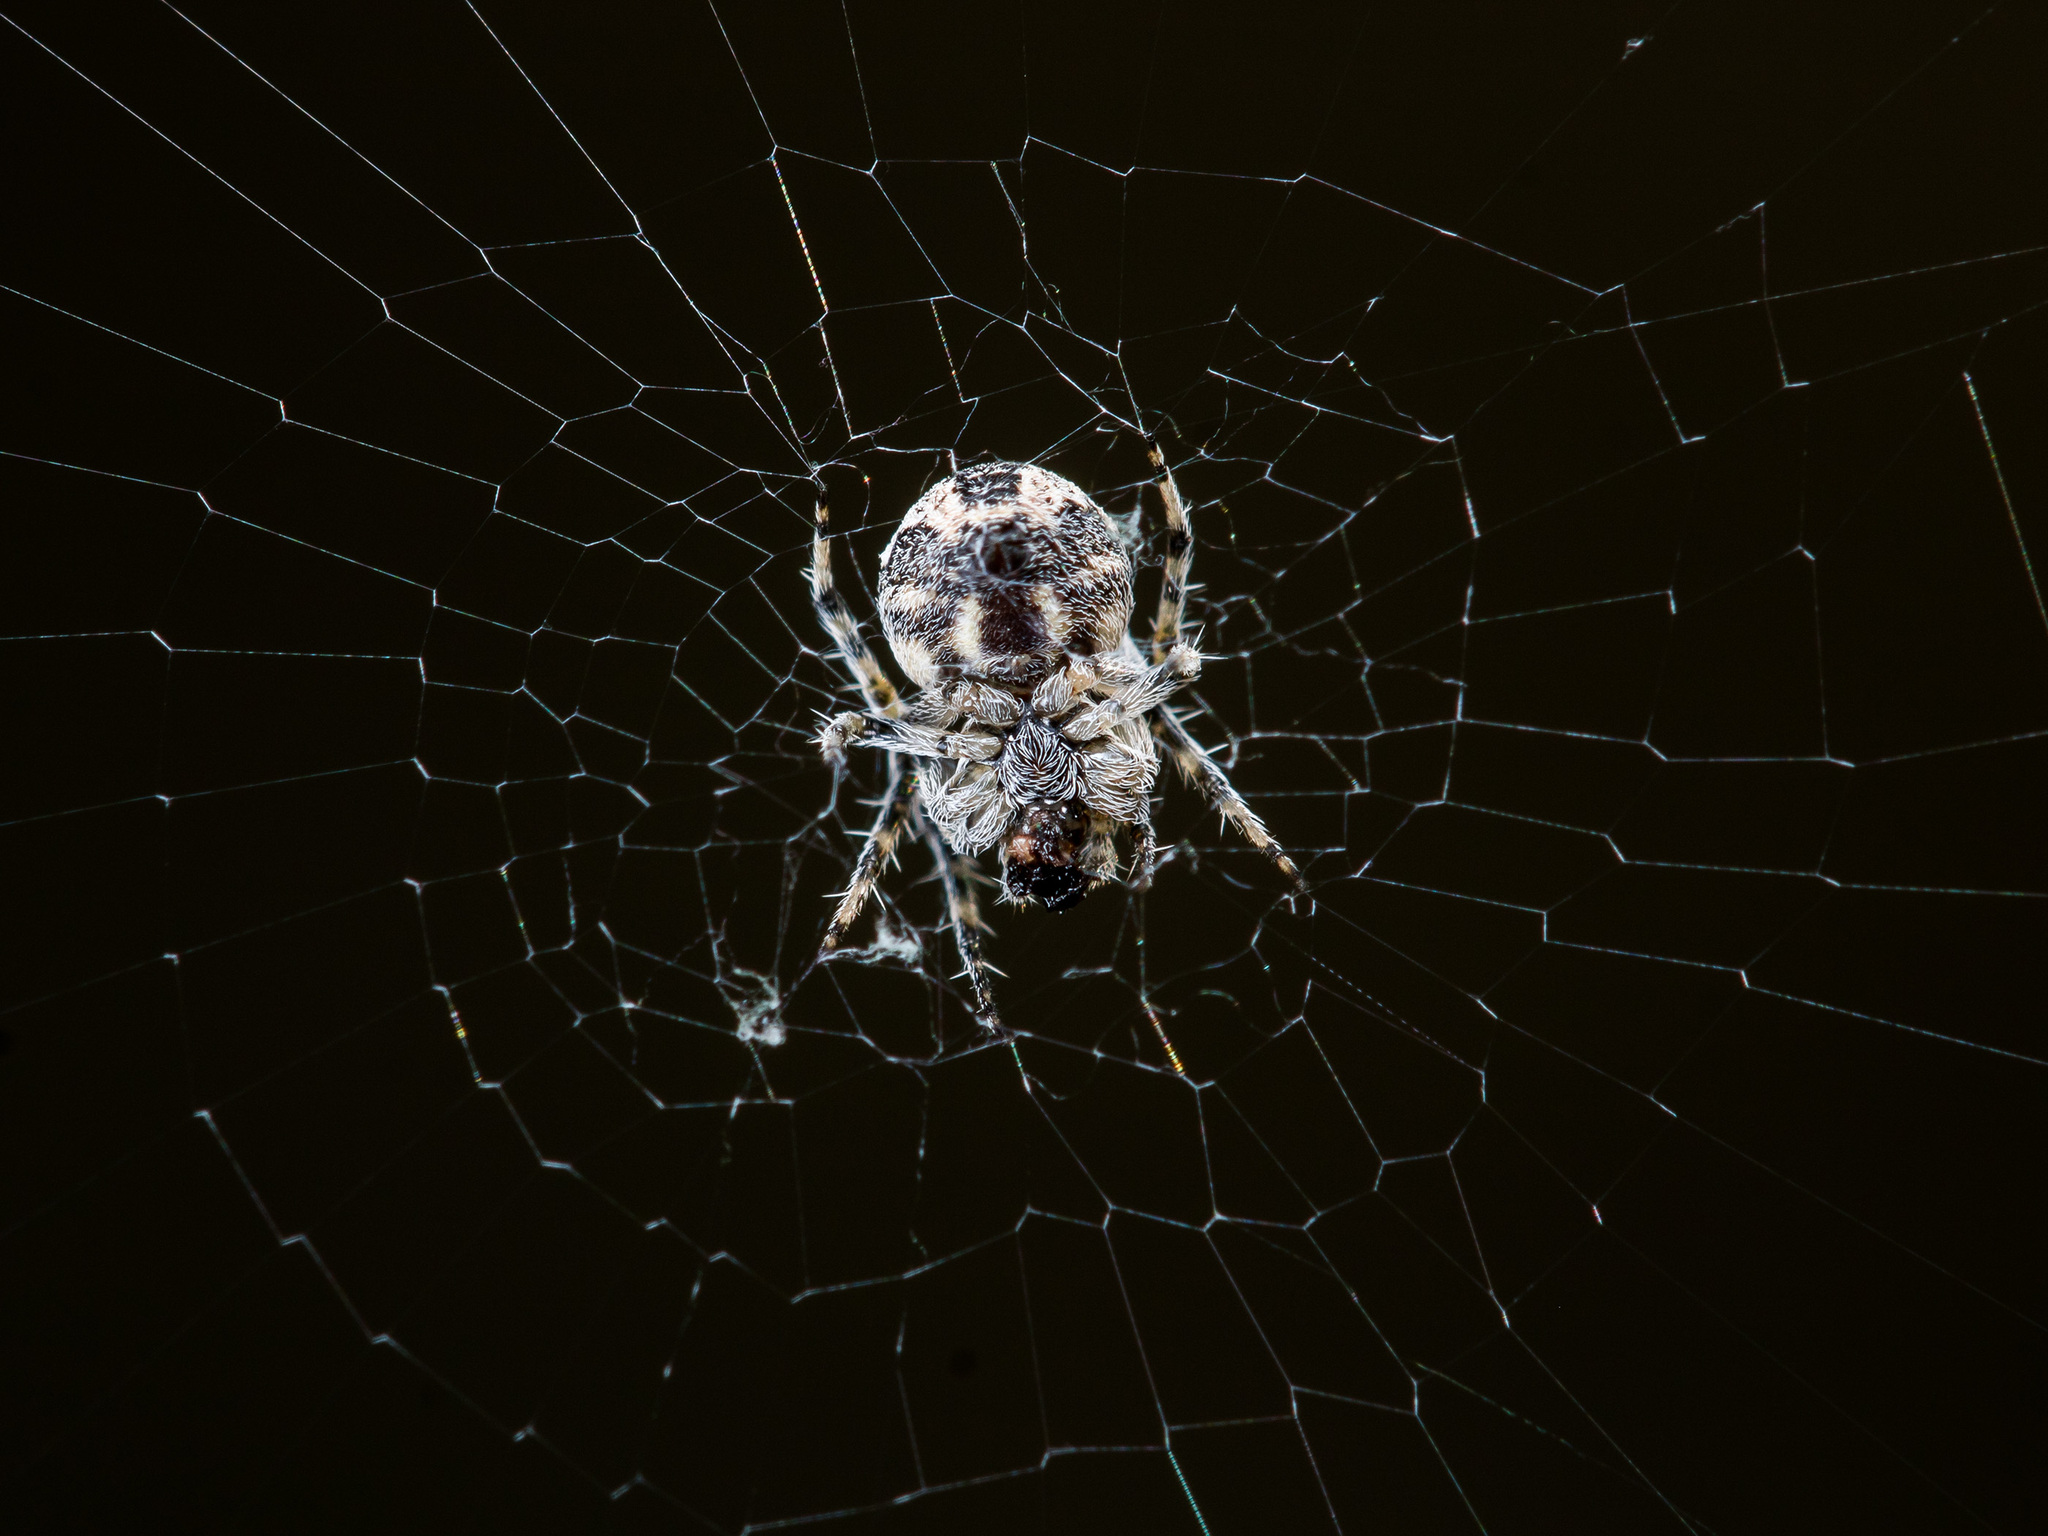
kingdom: Animalia
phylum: Arthropoda
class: Arachnida
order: Araneae
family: Araneidae
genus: Araneus
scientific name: Araneus strandiellus
